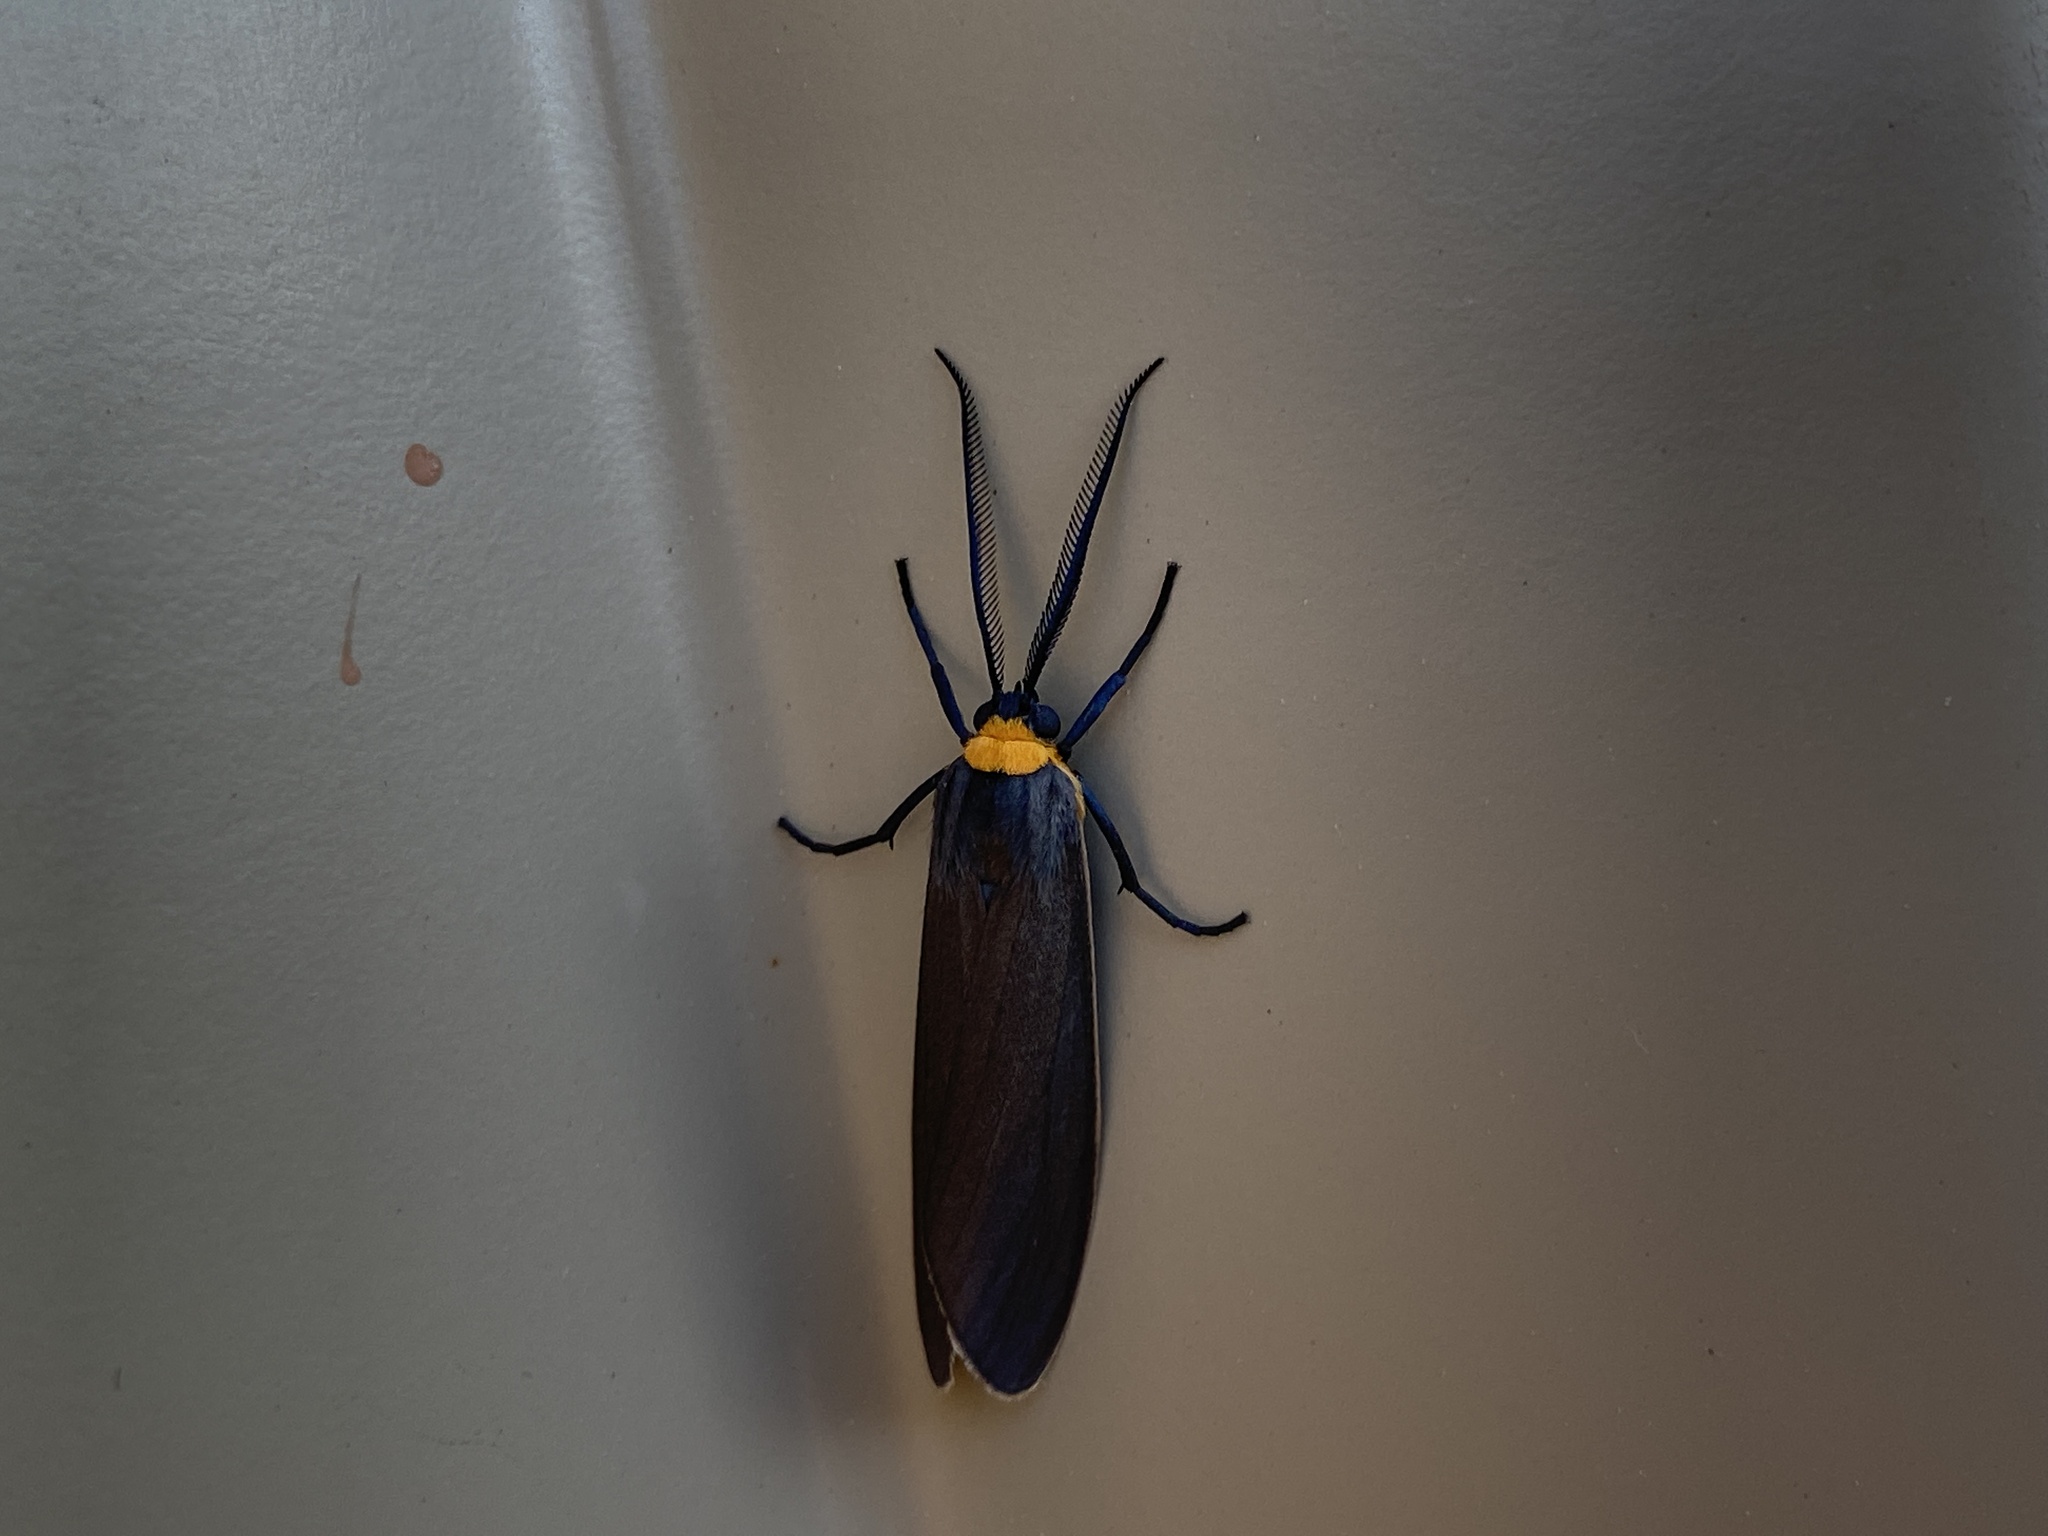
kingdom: Animalia
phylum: Arthropoda
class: Insecta
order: Lepidoptera
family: Erebidae
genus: Cisseps
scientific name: Cisseps fulvicollis
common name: Yellow-collared scape moth
